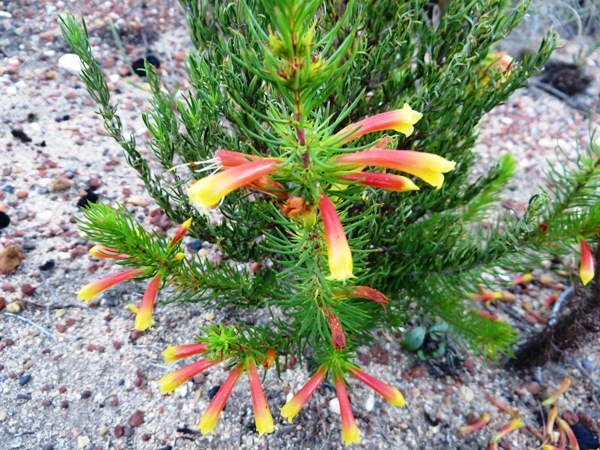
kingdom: Plantae
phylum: Tracheophyta
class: Magnoliopsida
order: Ericales
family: Ericaceae
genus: Erica
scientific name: Erica grandiflora
